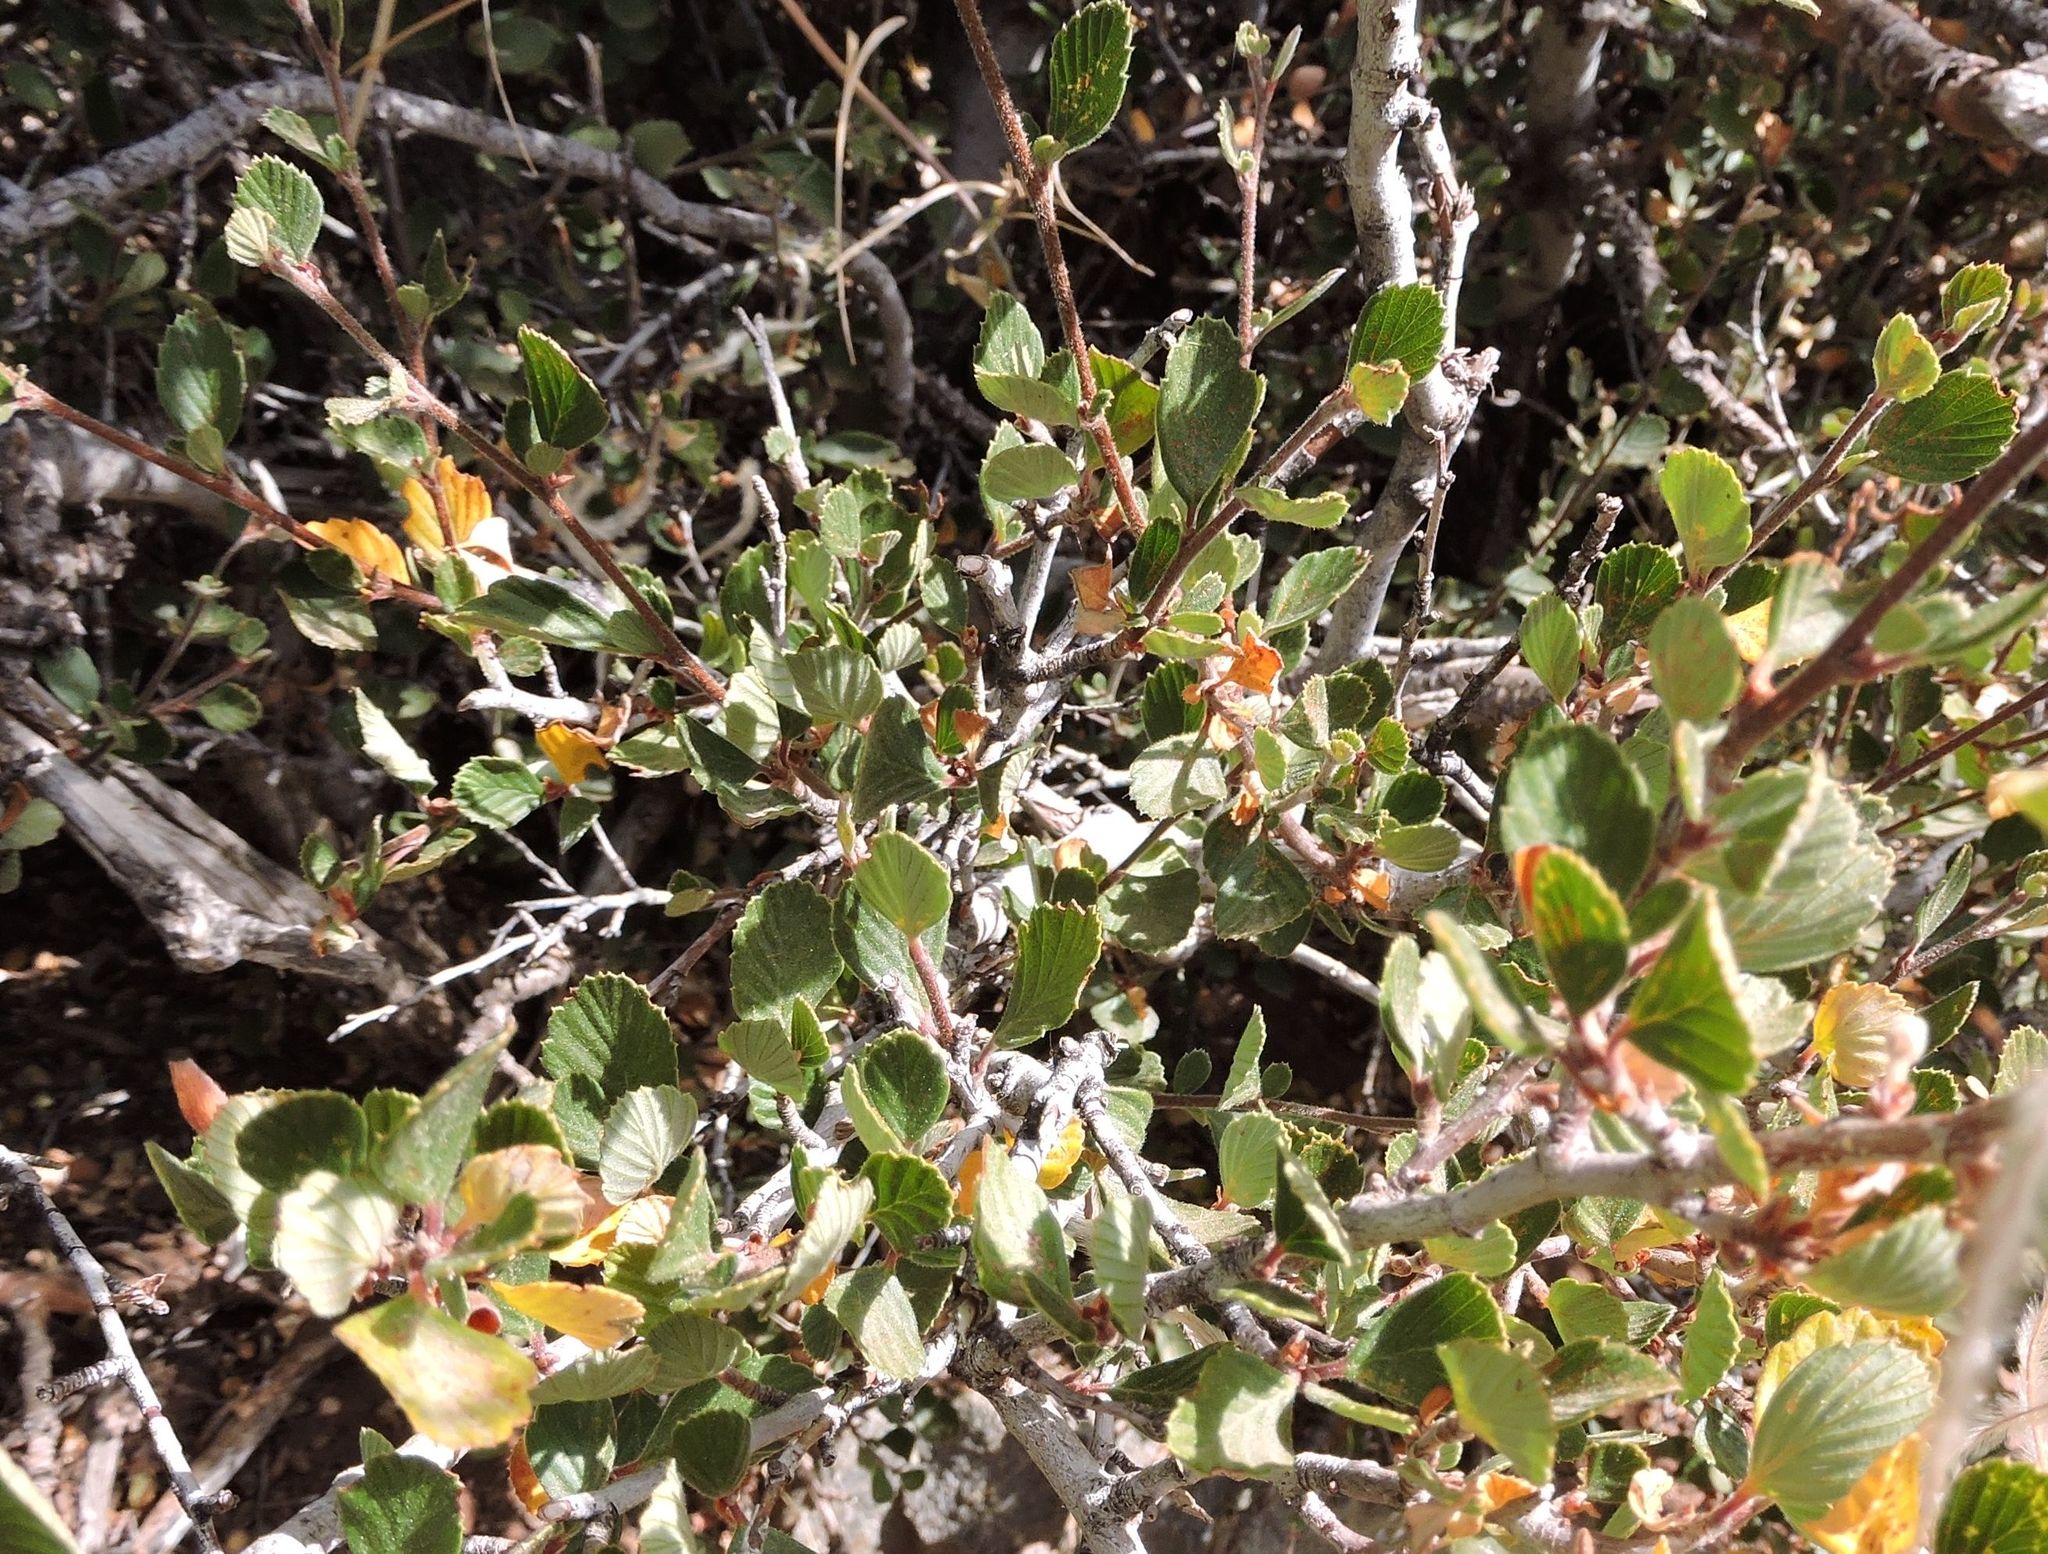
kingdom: Plantae
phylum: Tracheophyta
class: Magnoliopsida
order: Rosales
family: Rosaceae
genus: Cercocarpus
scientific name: Cercocarpus betuloides
